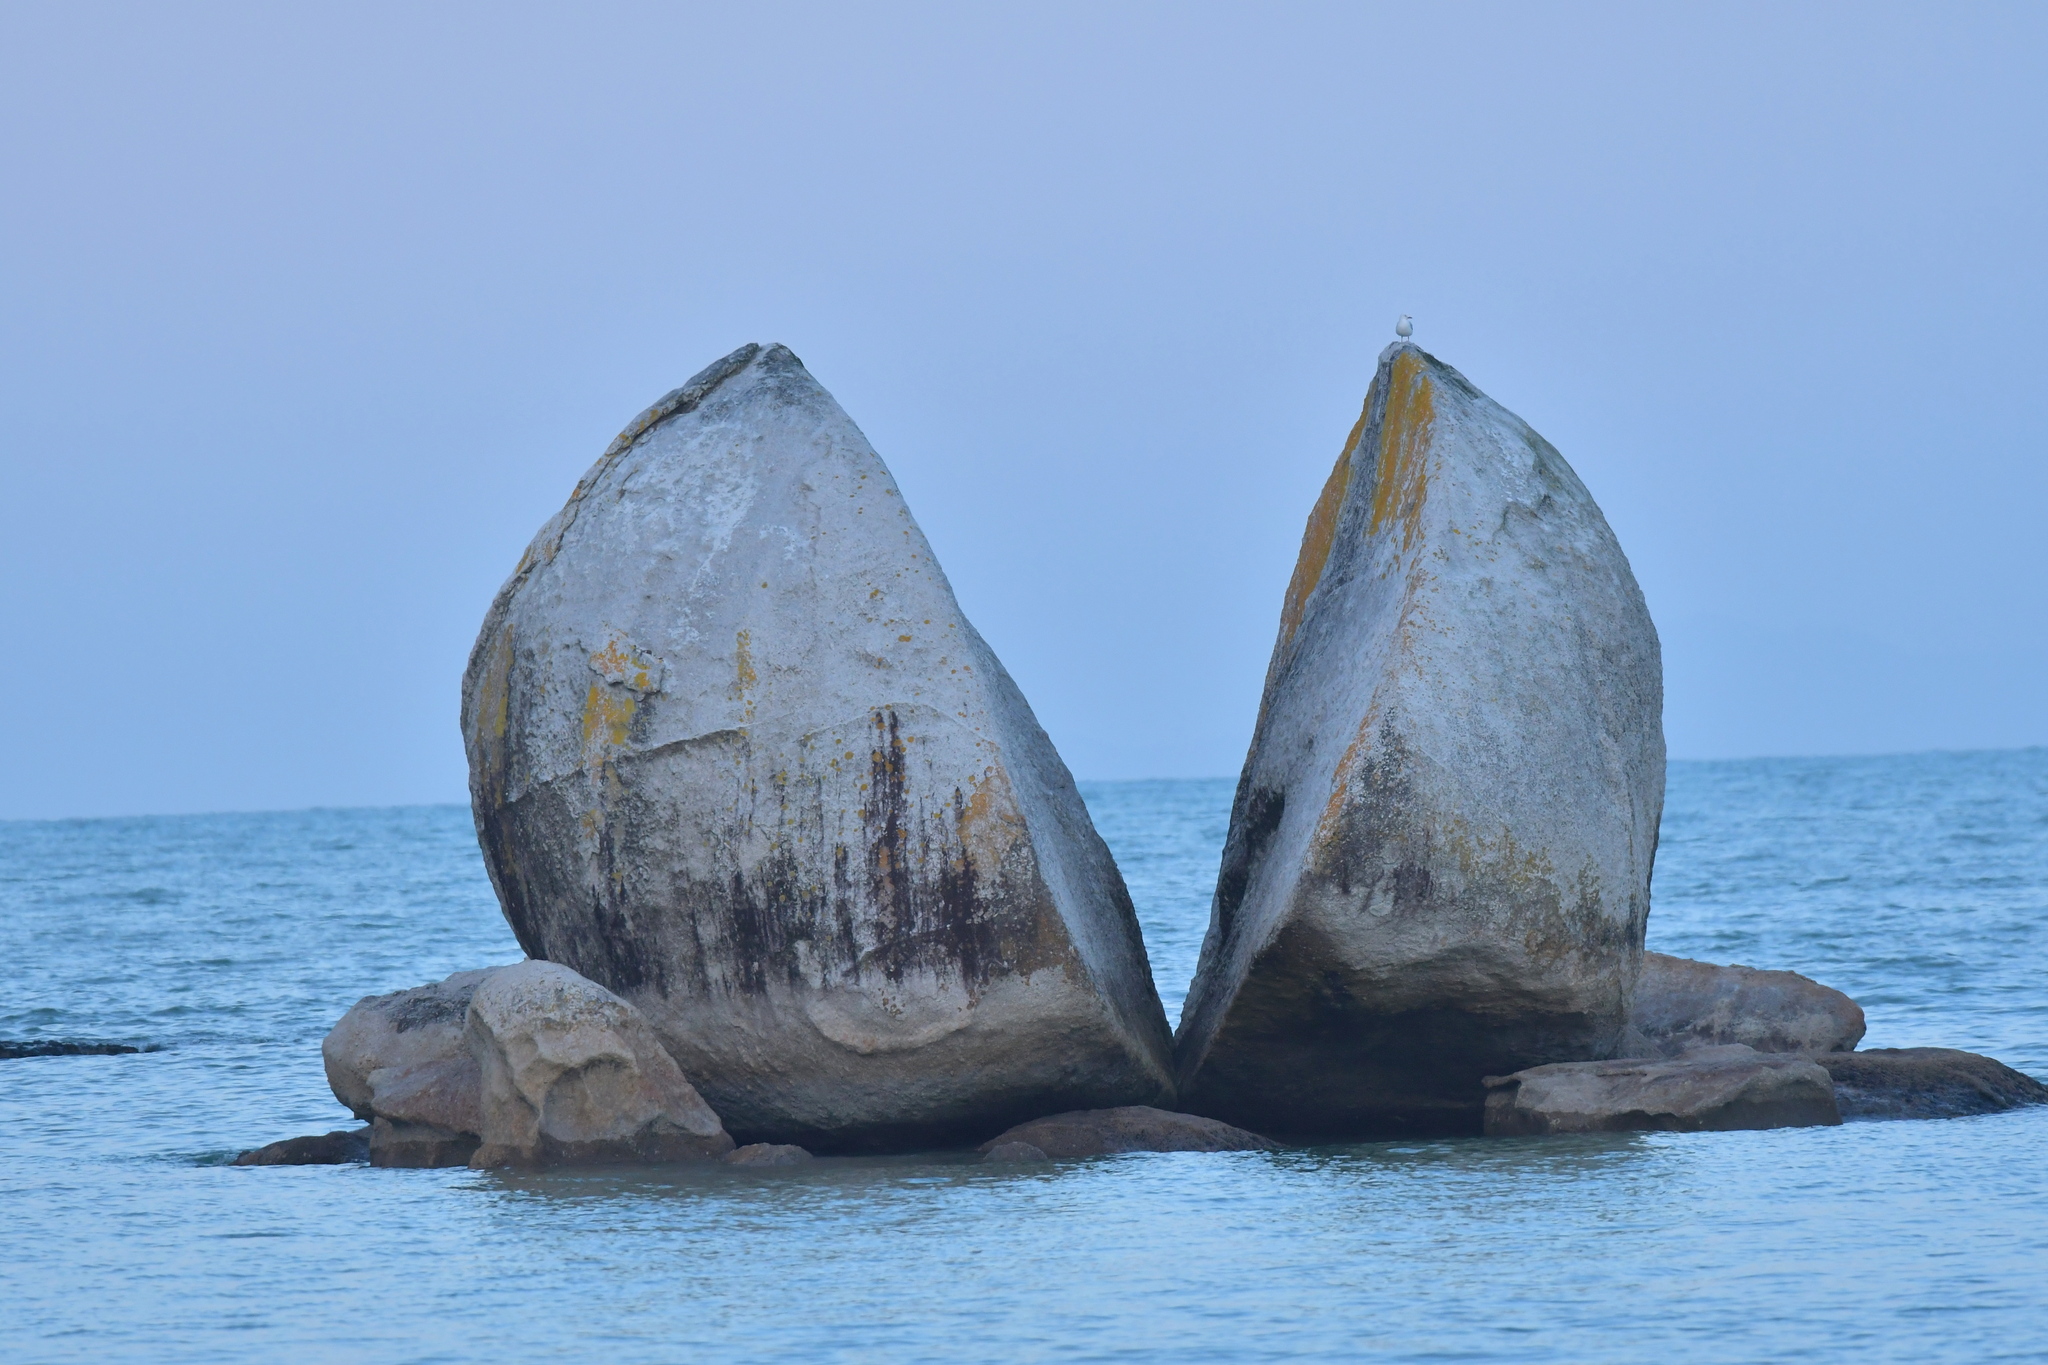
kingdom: Animalia
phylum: Chordata
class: Aves
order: Charadriiformes
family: Laridae
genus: Chroicocephalus
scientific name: Chroicocephalus novaehollandiae
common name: Silver gull
